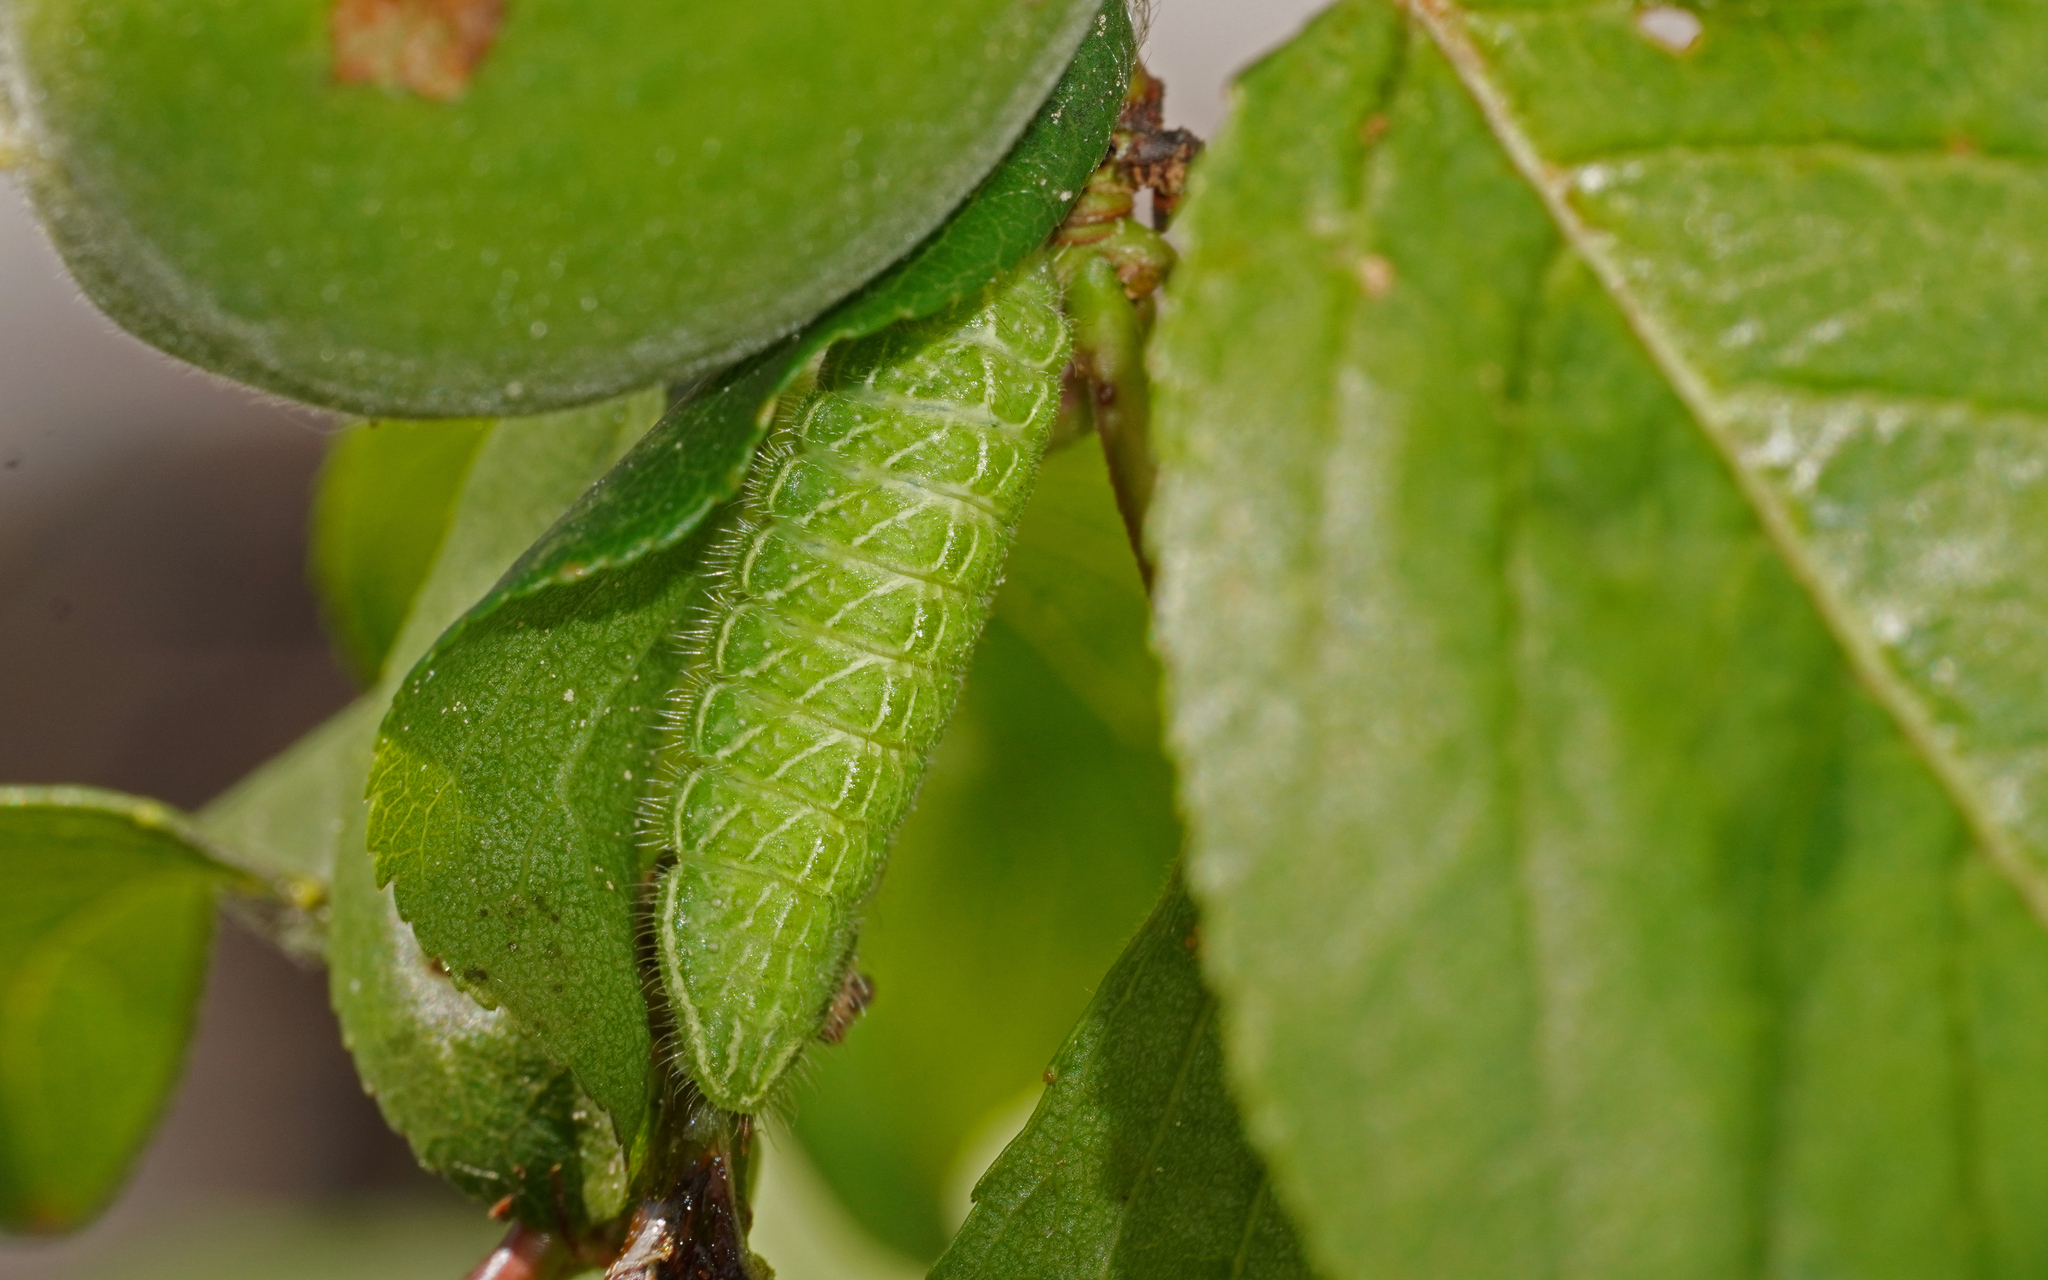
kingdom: Animalia
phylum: Arthropoda
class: Insecta
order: Lepidoptera
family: Lycaenidae
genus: Thecla
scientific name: Thecla betulae
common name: Brown hairstreak
